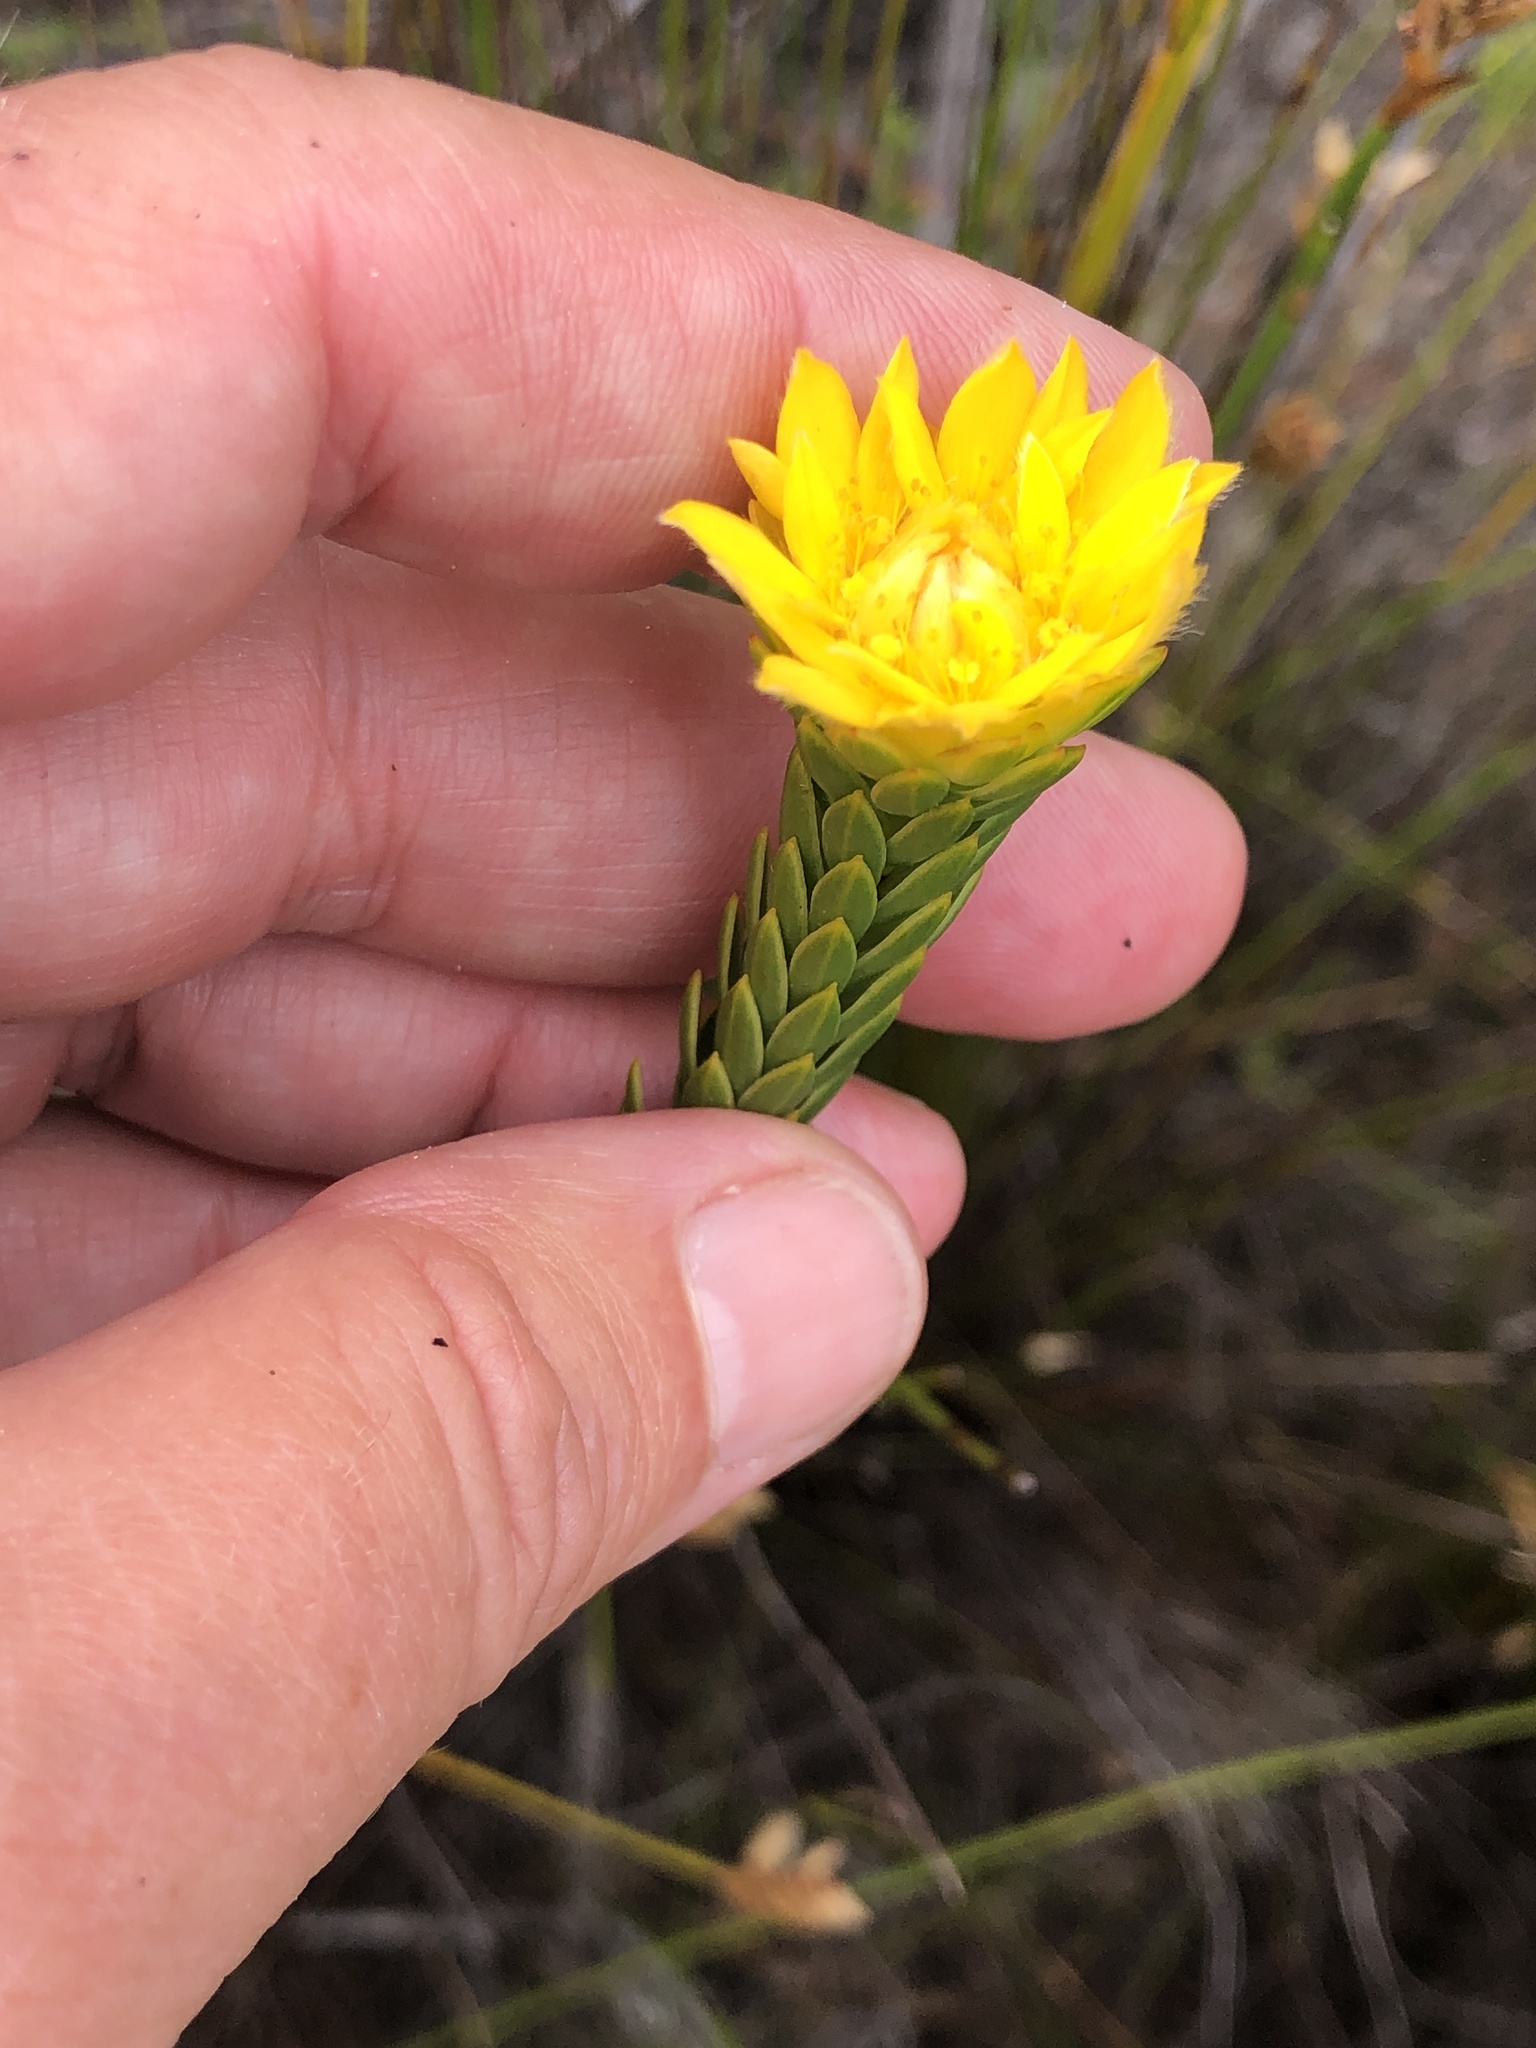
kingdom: Plantae
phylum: Tracheophyta
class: Magnoliopsida
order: Malvales
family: Thymelaeaceae
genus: Lachnaea
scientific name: Lachnaea aurea
